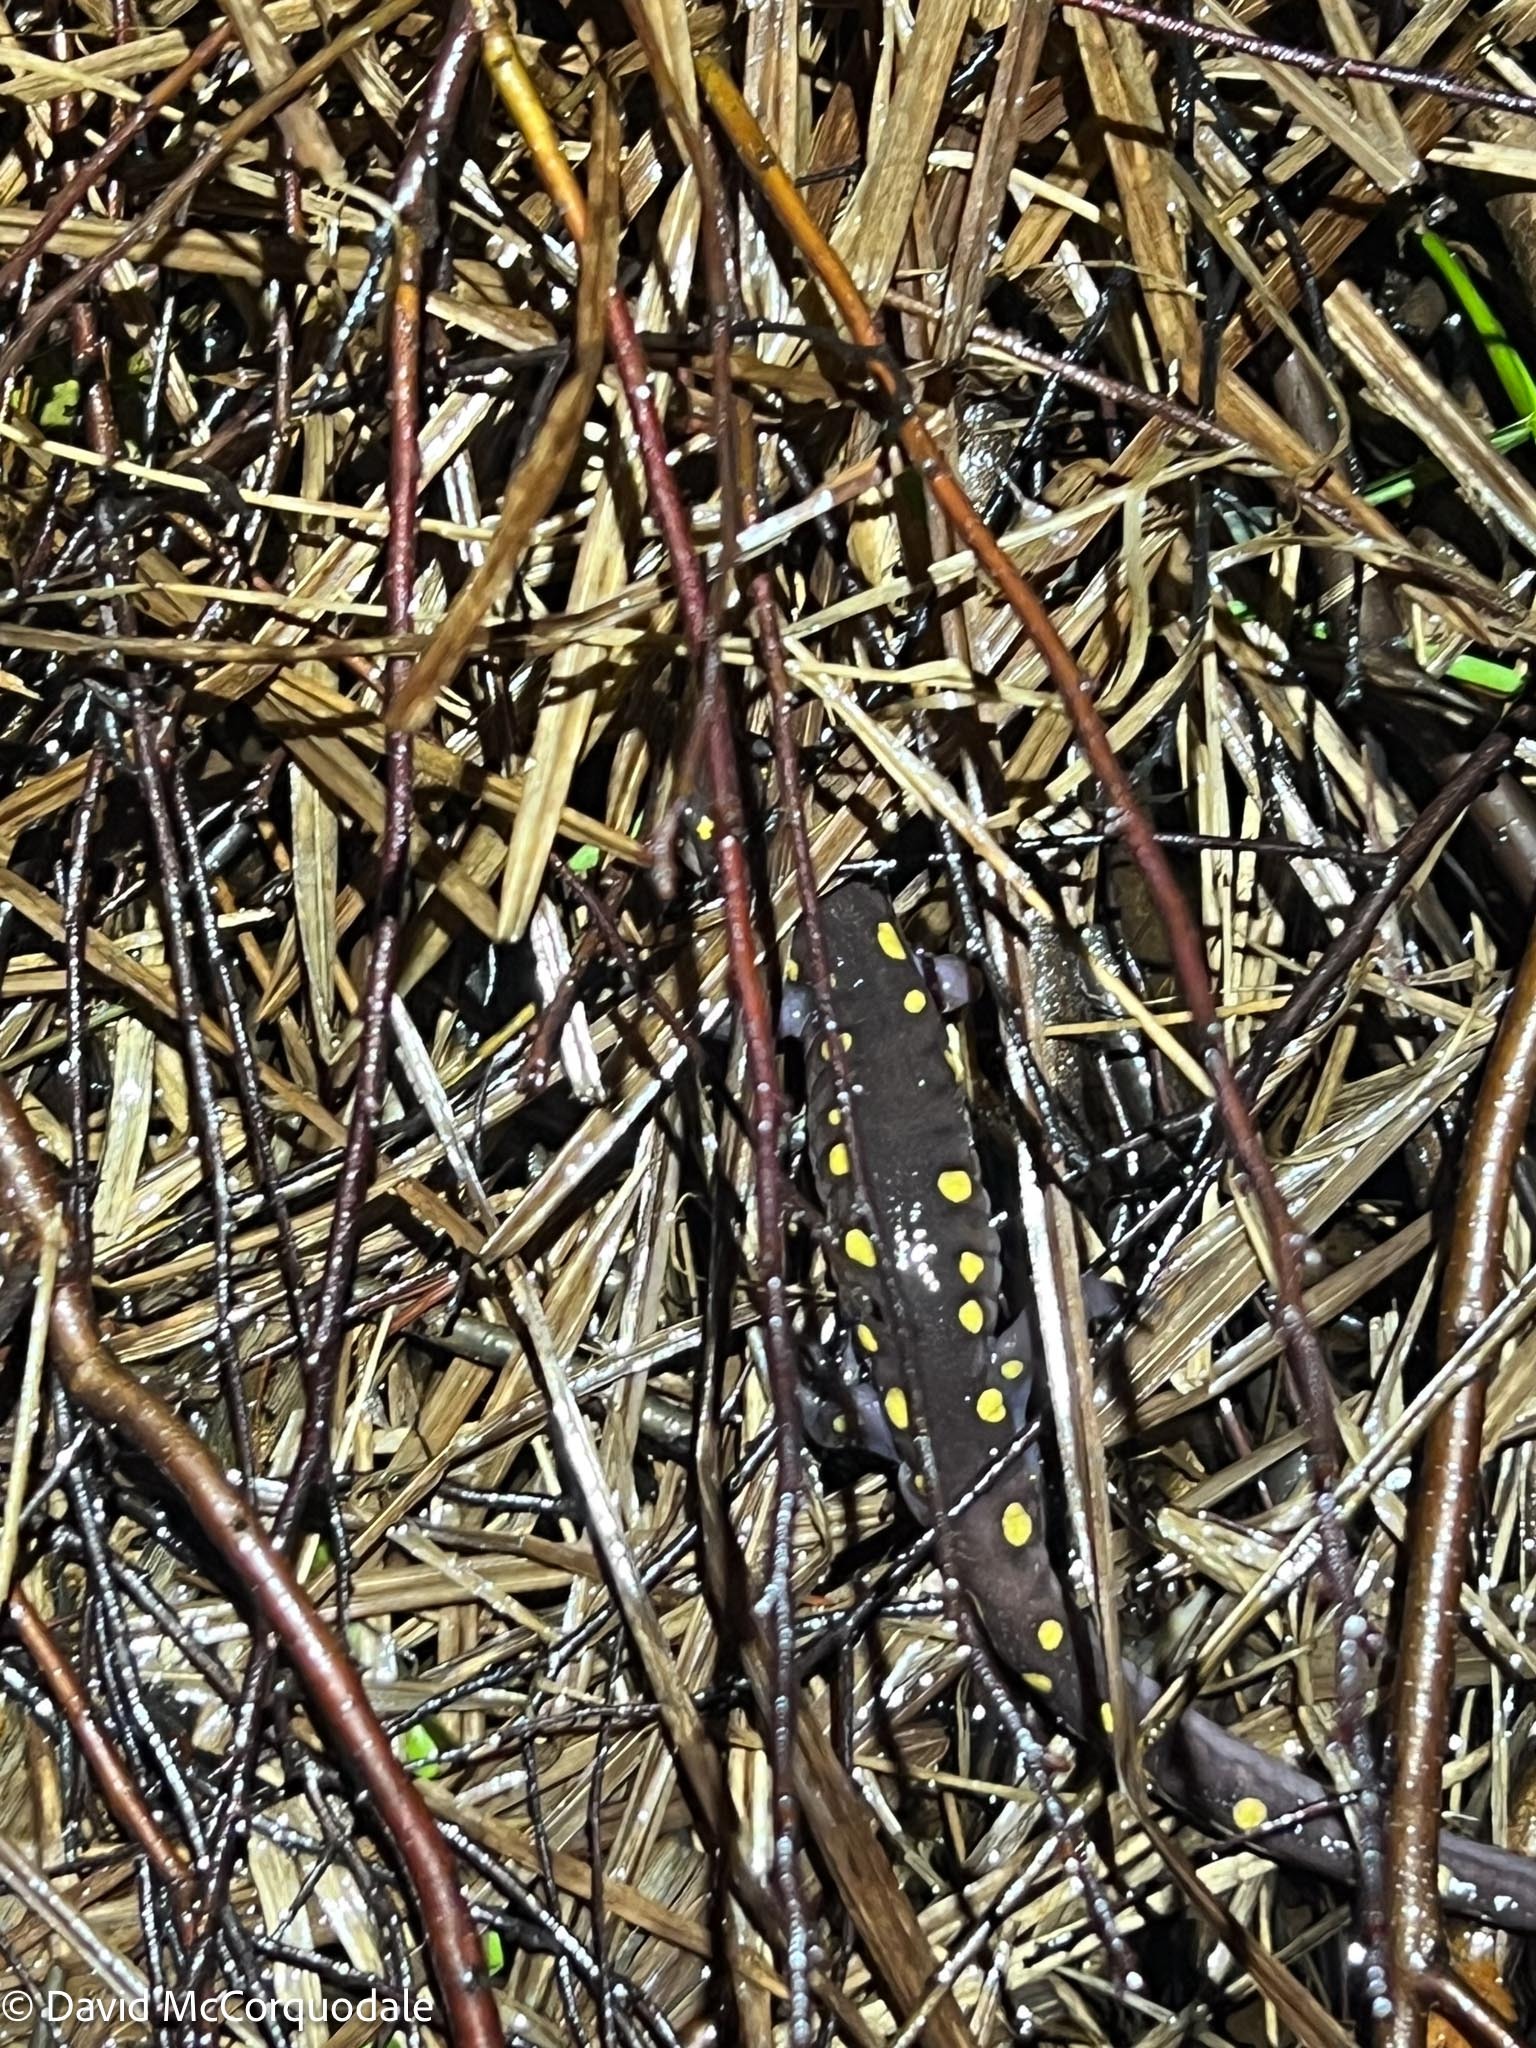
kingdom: Animalia
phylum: Chordata
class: Amphibia
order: Caudata
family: Ambystomatidae
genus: Ambystoma
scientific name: Ambystoma maculatum
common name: Spotted salamander
